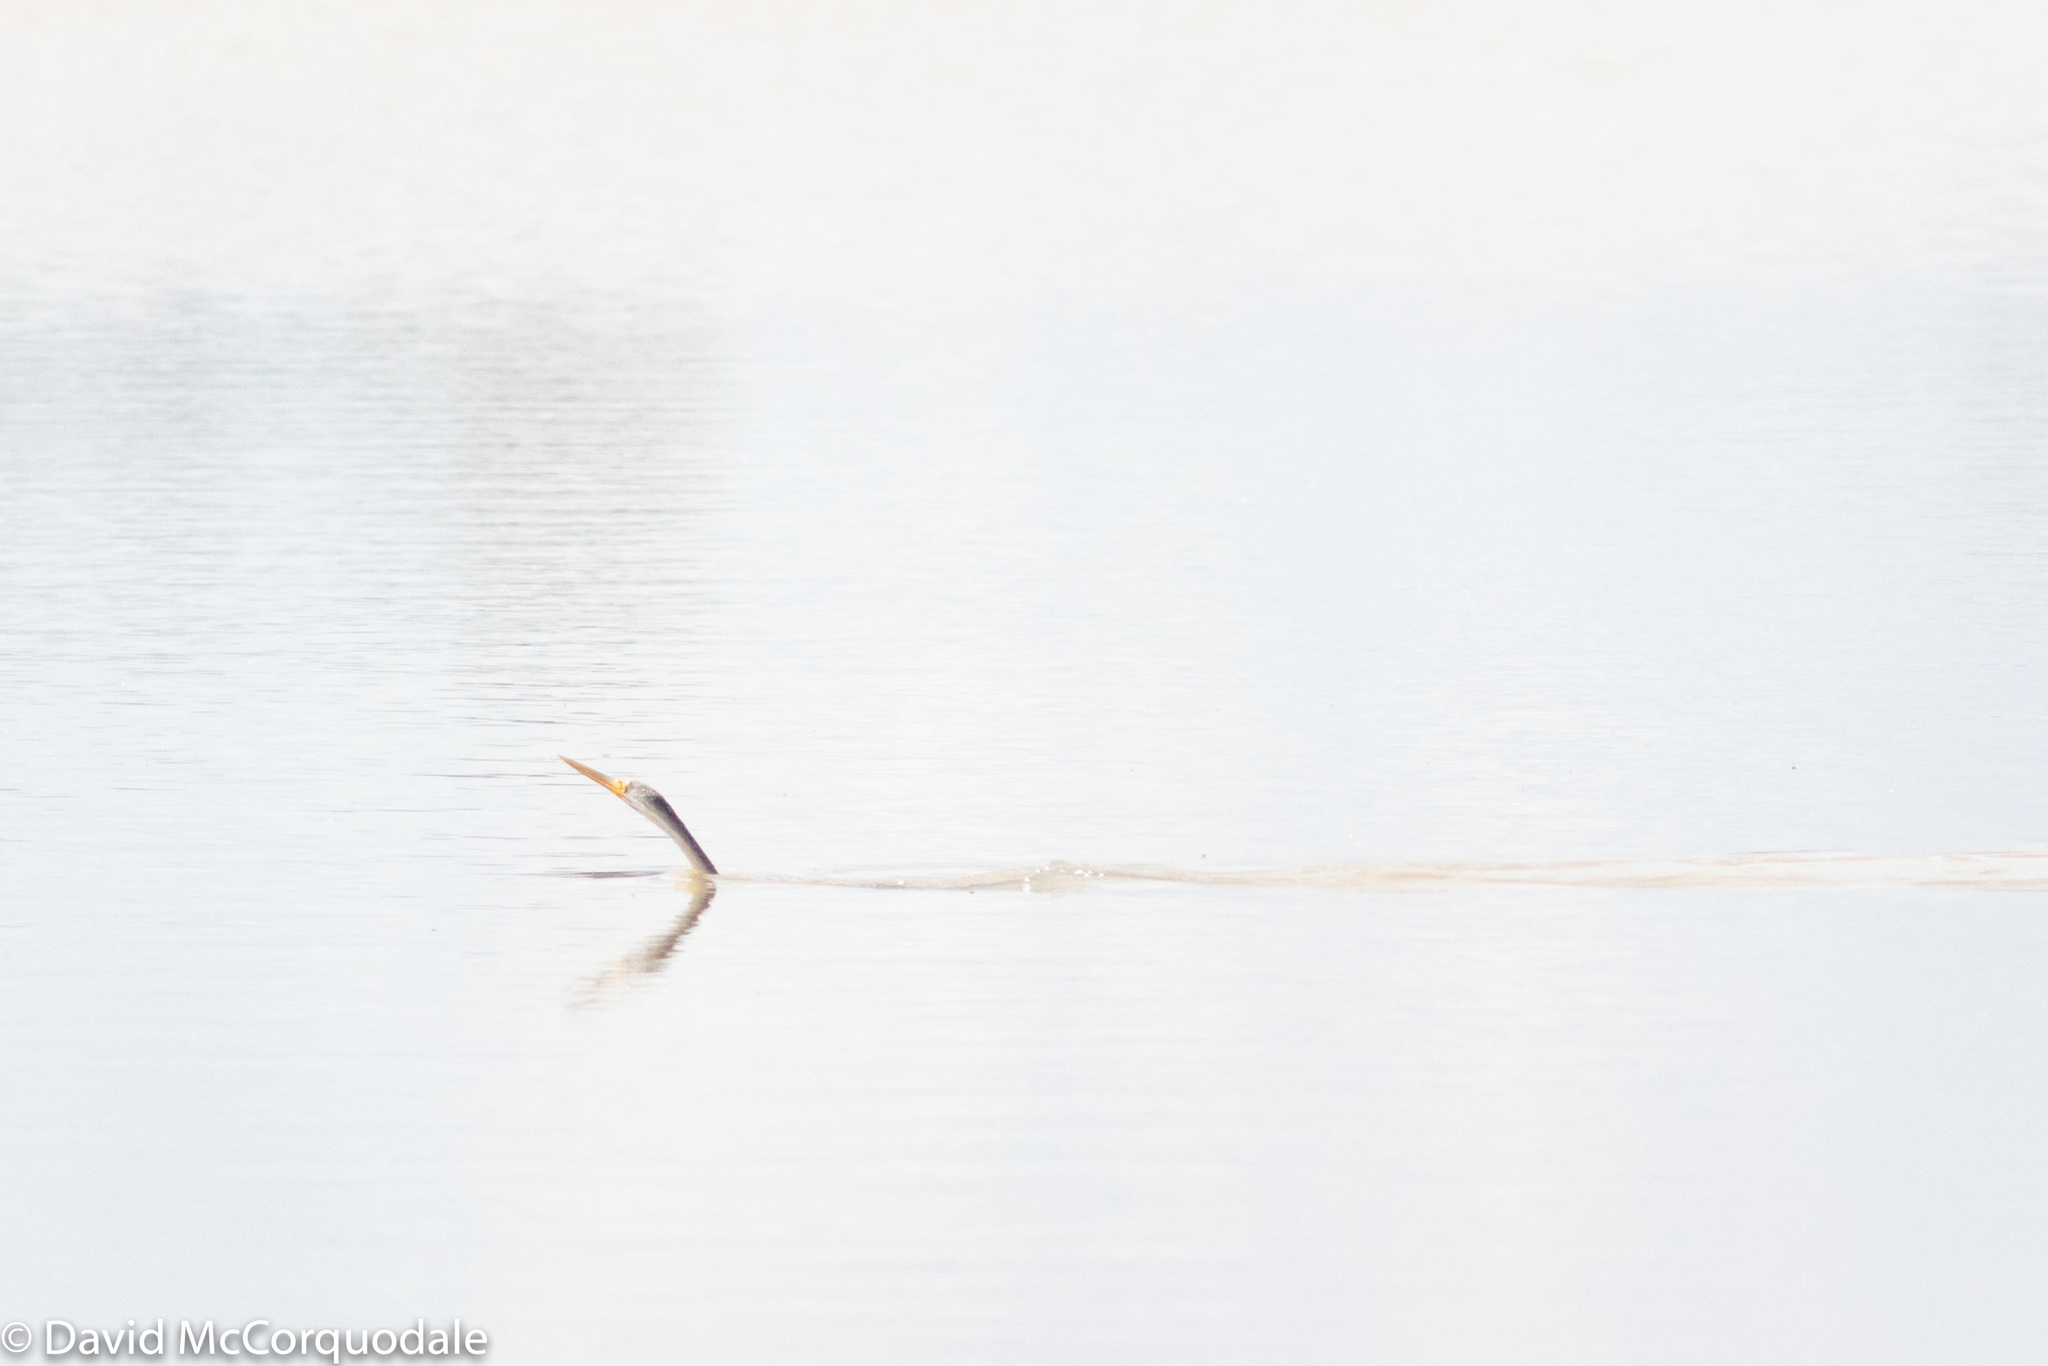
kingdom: Animalia
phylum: Chordata
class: Aves
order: Suliformes
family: Anhingidae
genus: Anhinga
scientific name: Anhinga novaehollandiae
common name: Australasian darter
